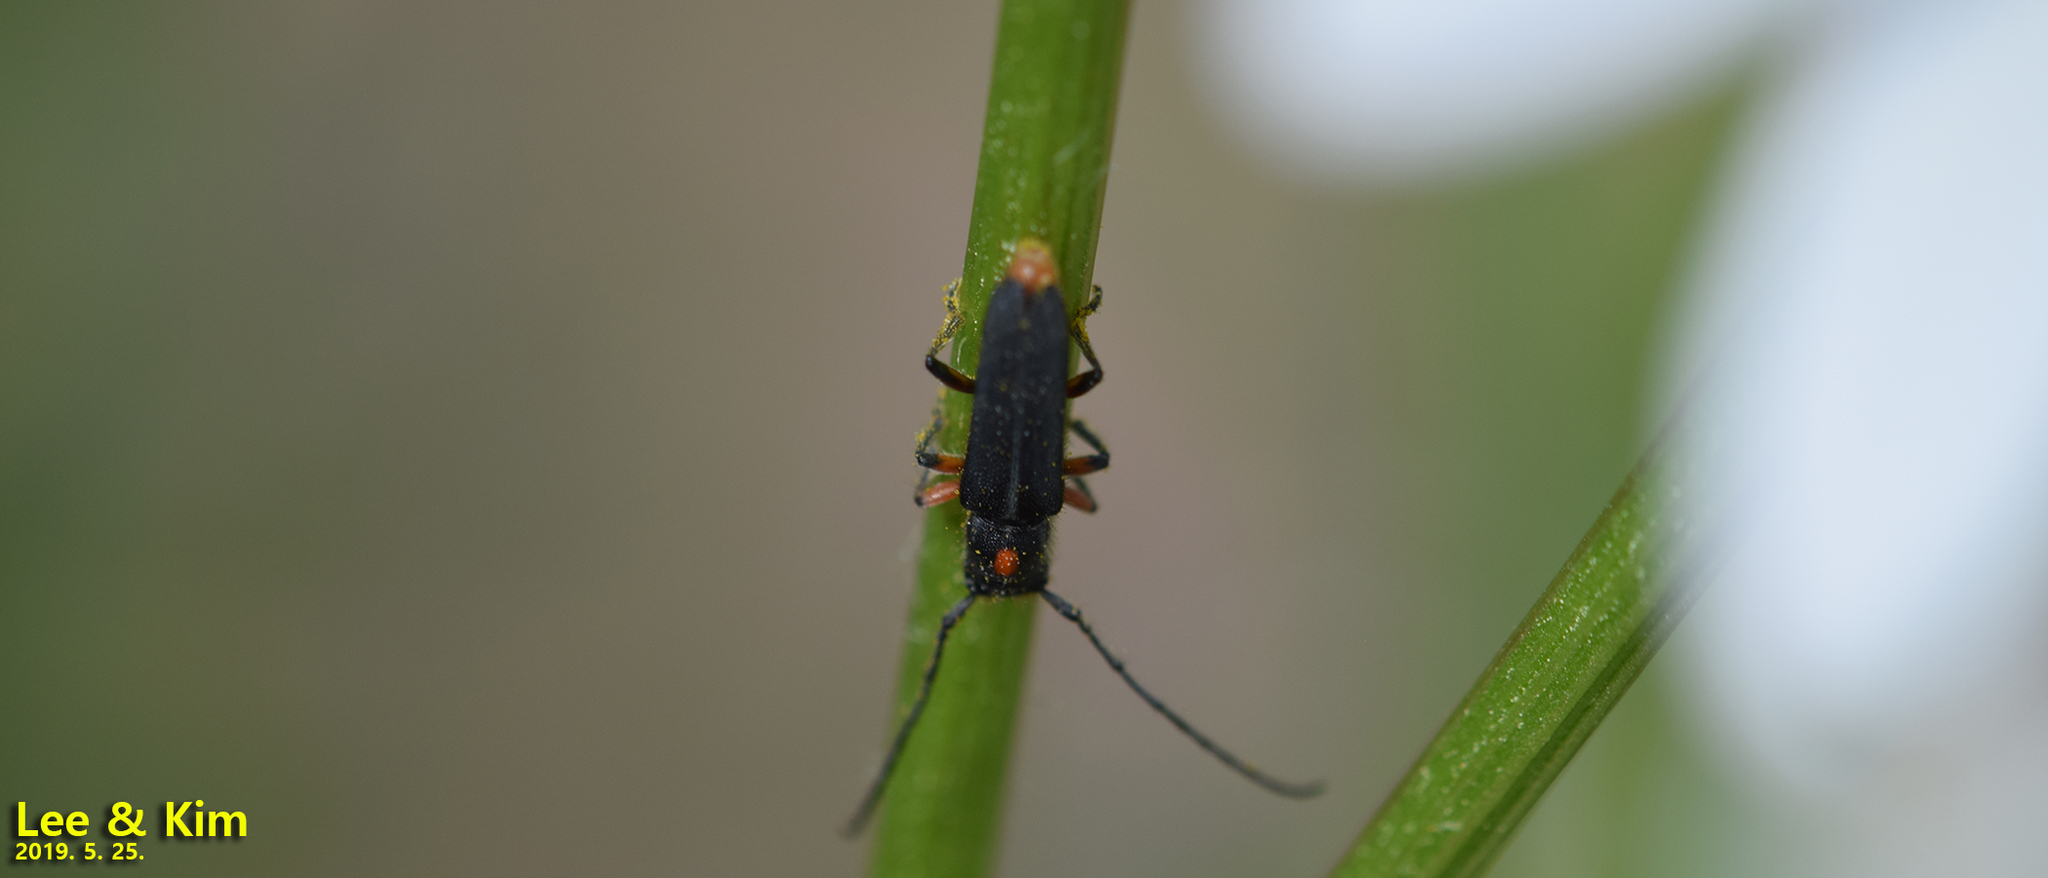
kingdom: Animalia
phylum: Arthropoda
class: Insecta
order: Coleoptera
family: Cerambycidae
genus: Phytoecia
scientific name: Phytoecia rufiventris
